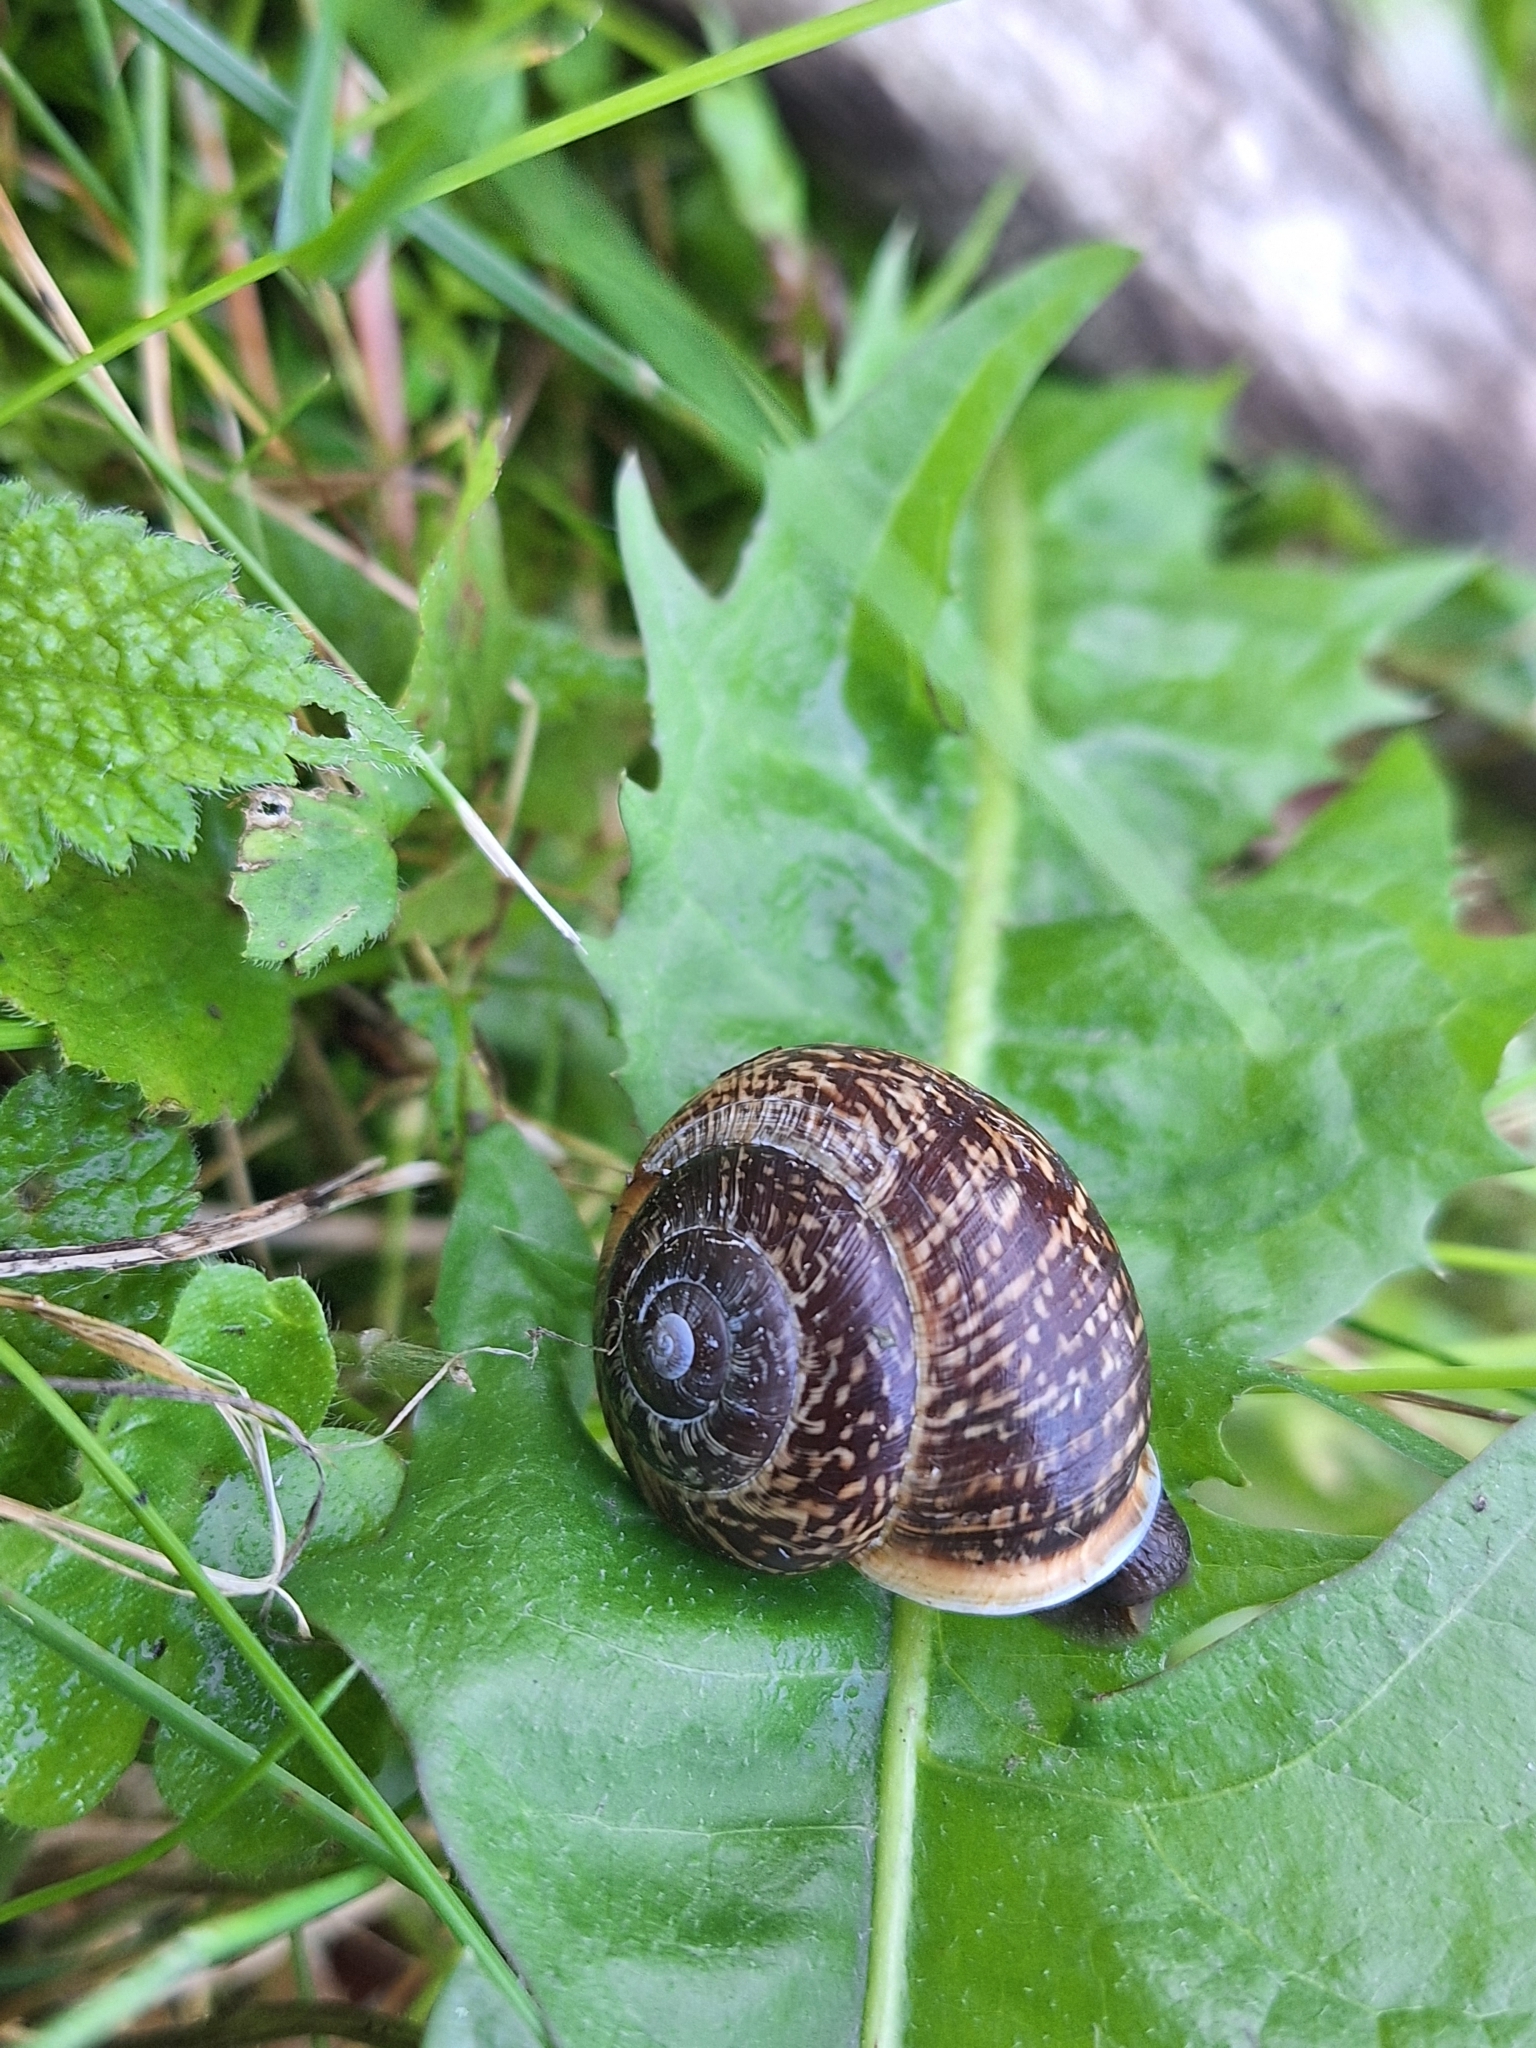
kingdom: Animalia
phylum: Mollusca
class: Gastropoda
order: Stylommatophora
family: Helicidae
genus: Arianta
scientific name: Arianta arbustorum
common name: Copse snail
